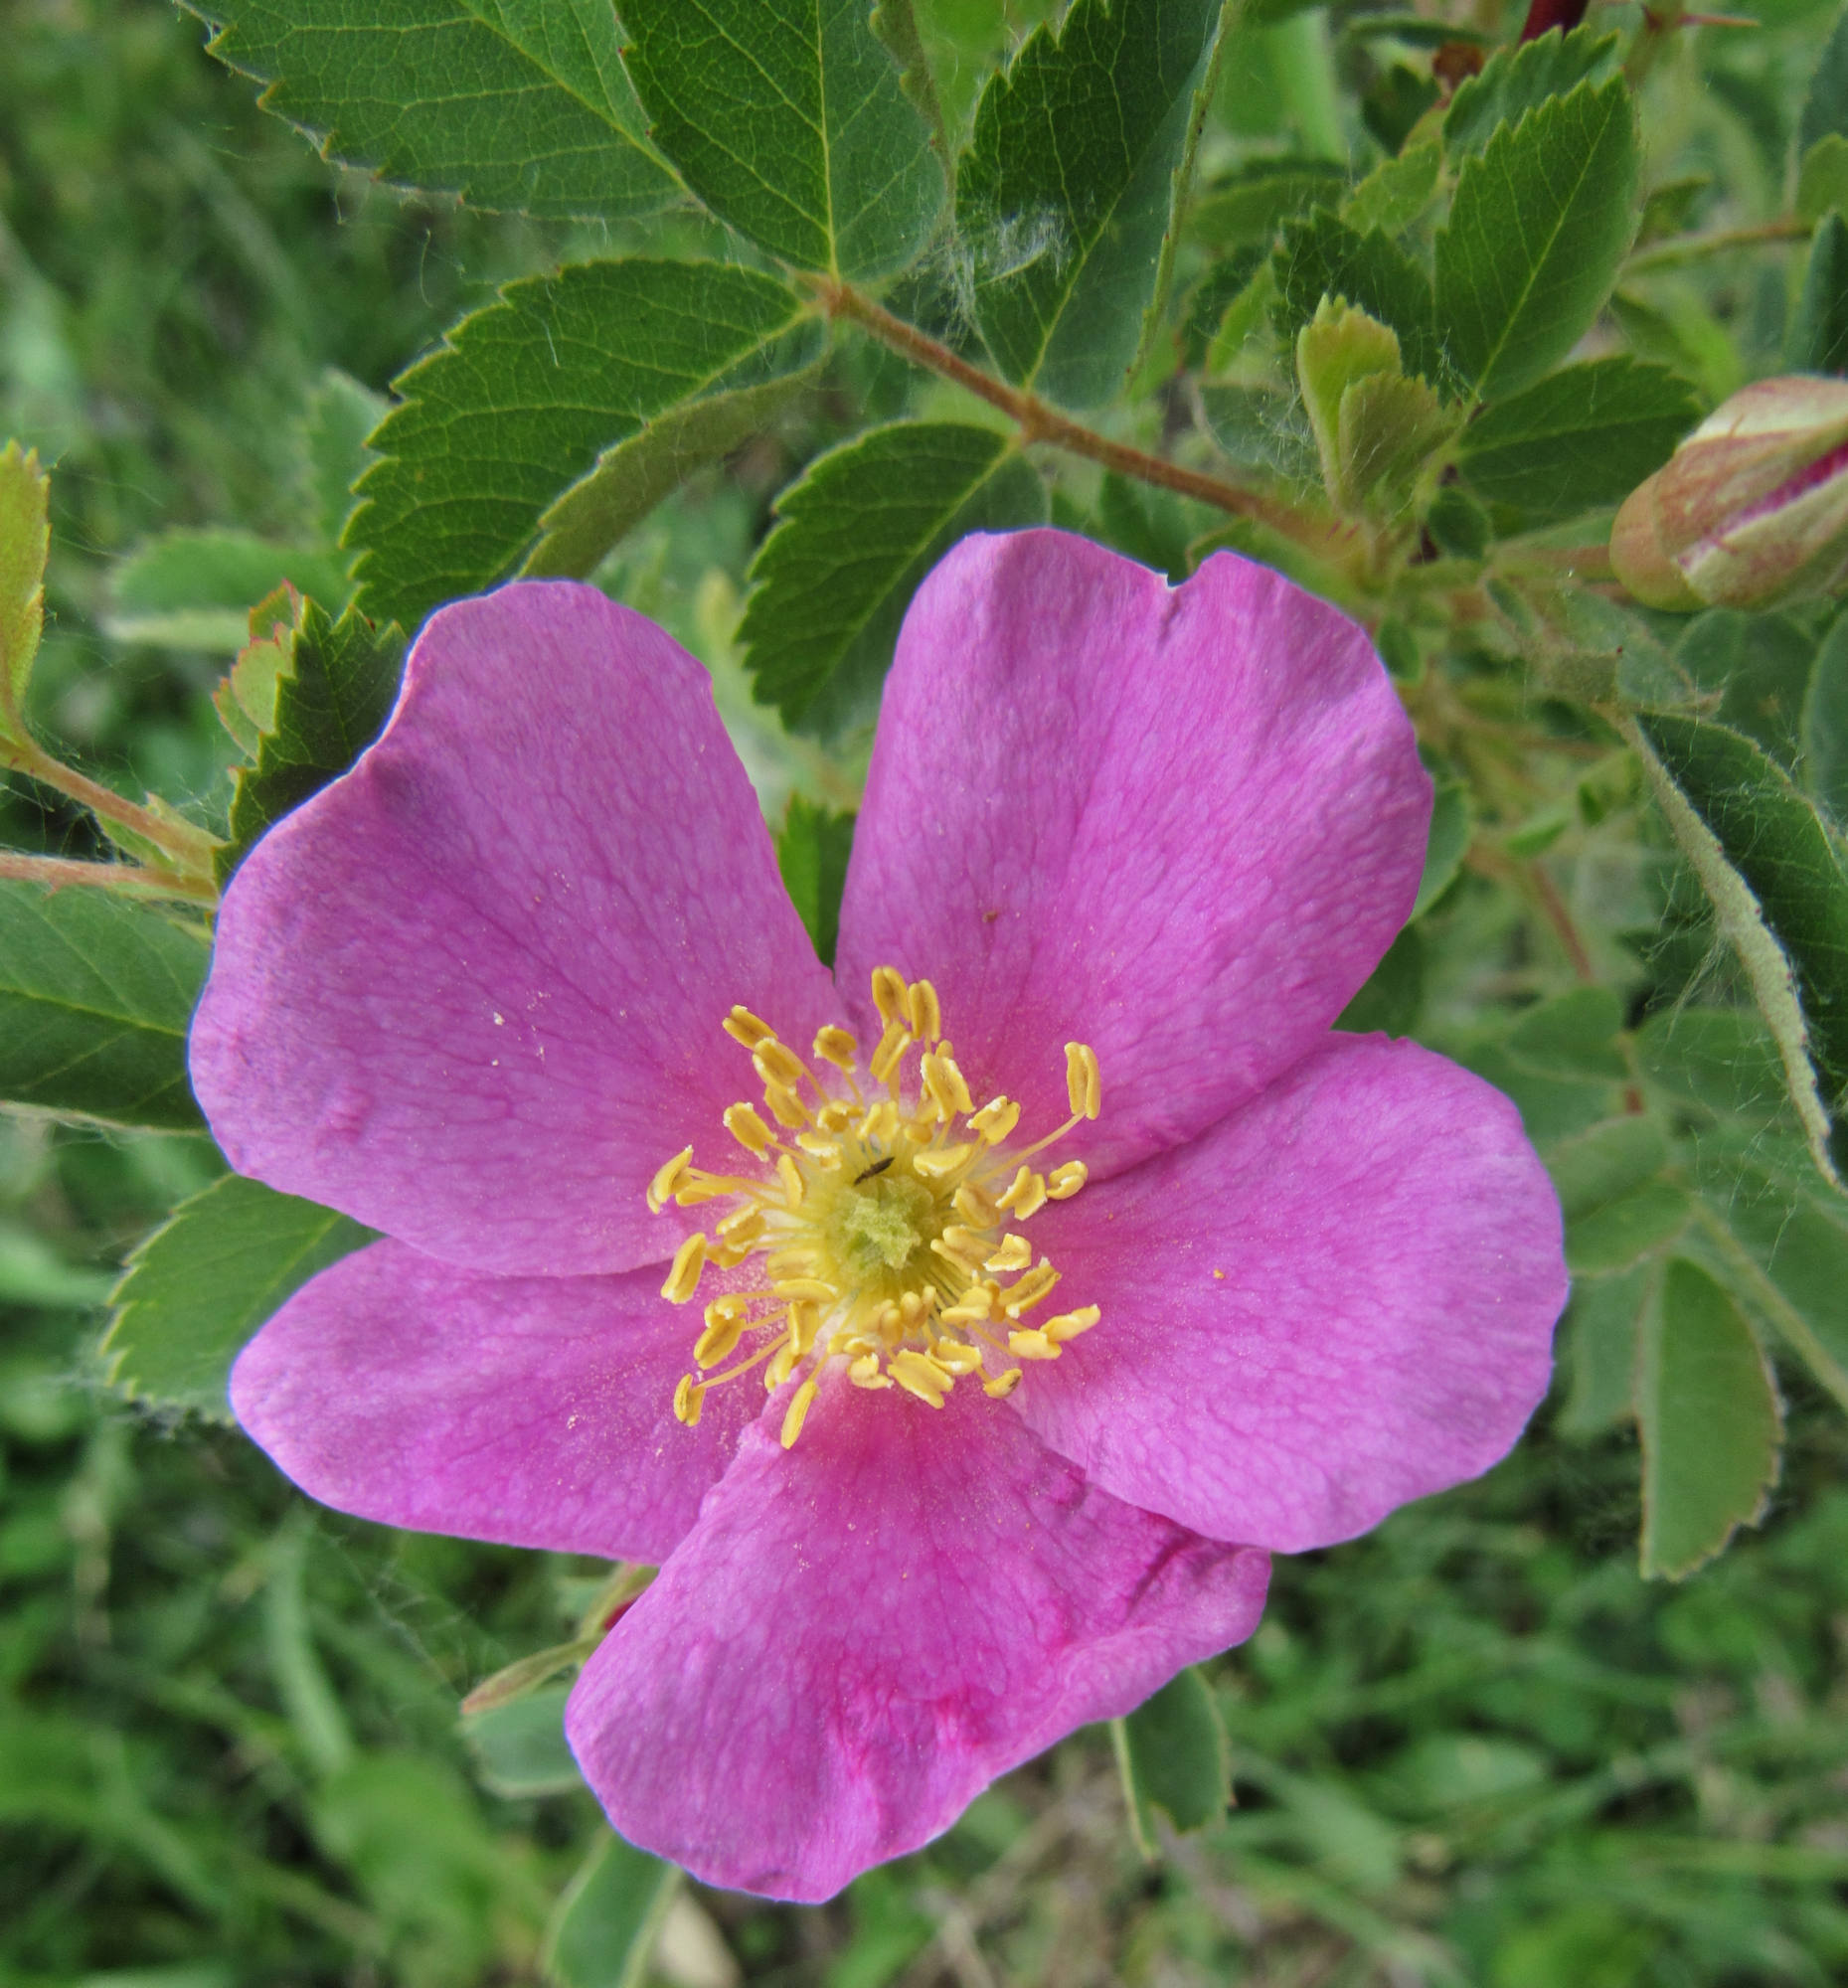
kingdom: Plantae
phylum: Tracheophyta
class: Magnoliopsida
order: Rosales
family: Rosaceae
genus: Rosa
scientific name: Rosa woodsii
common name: Woods's rose
